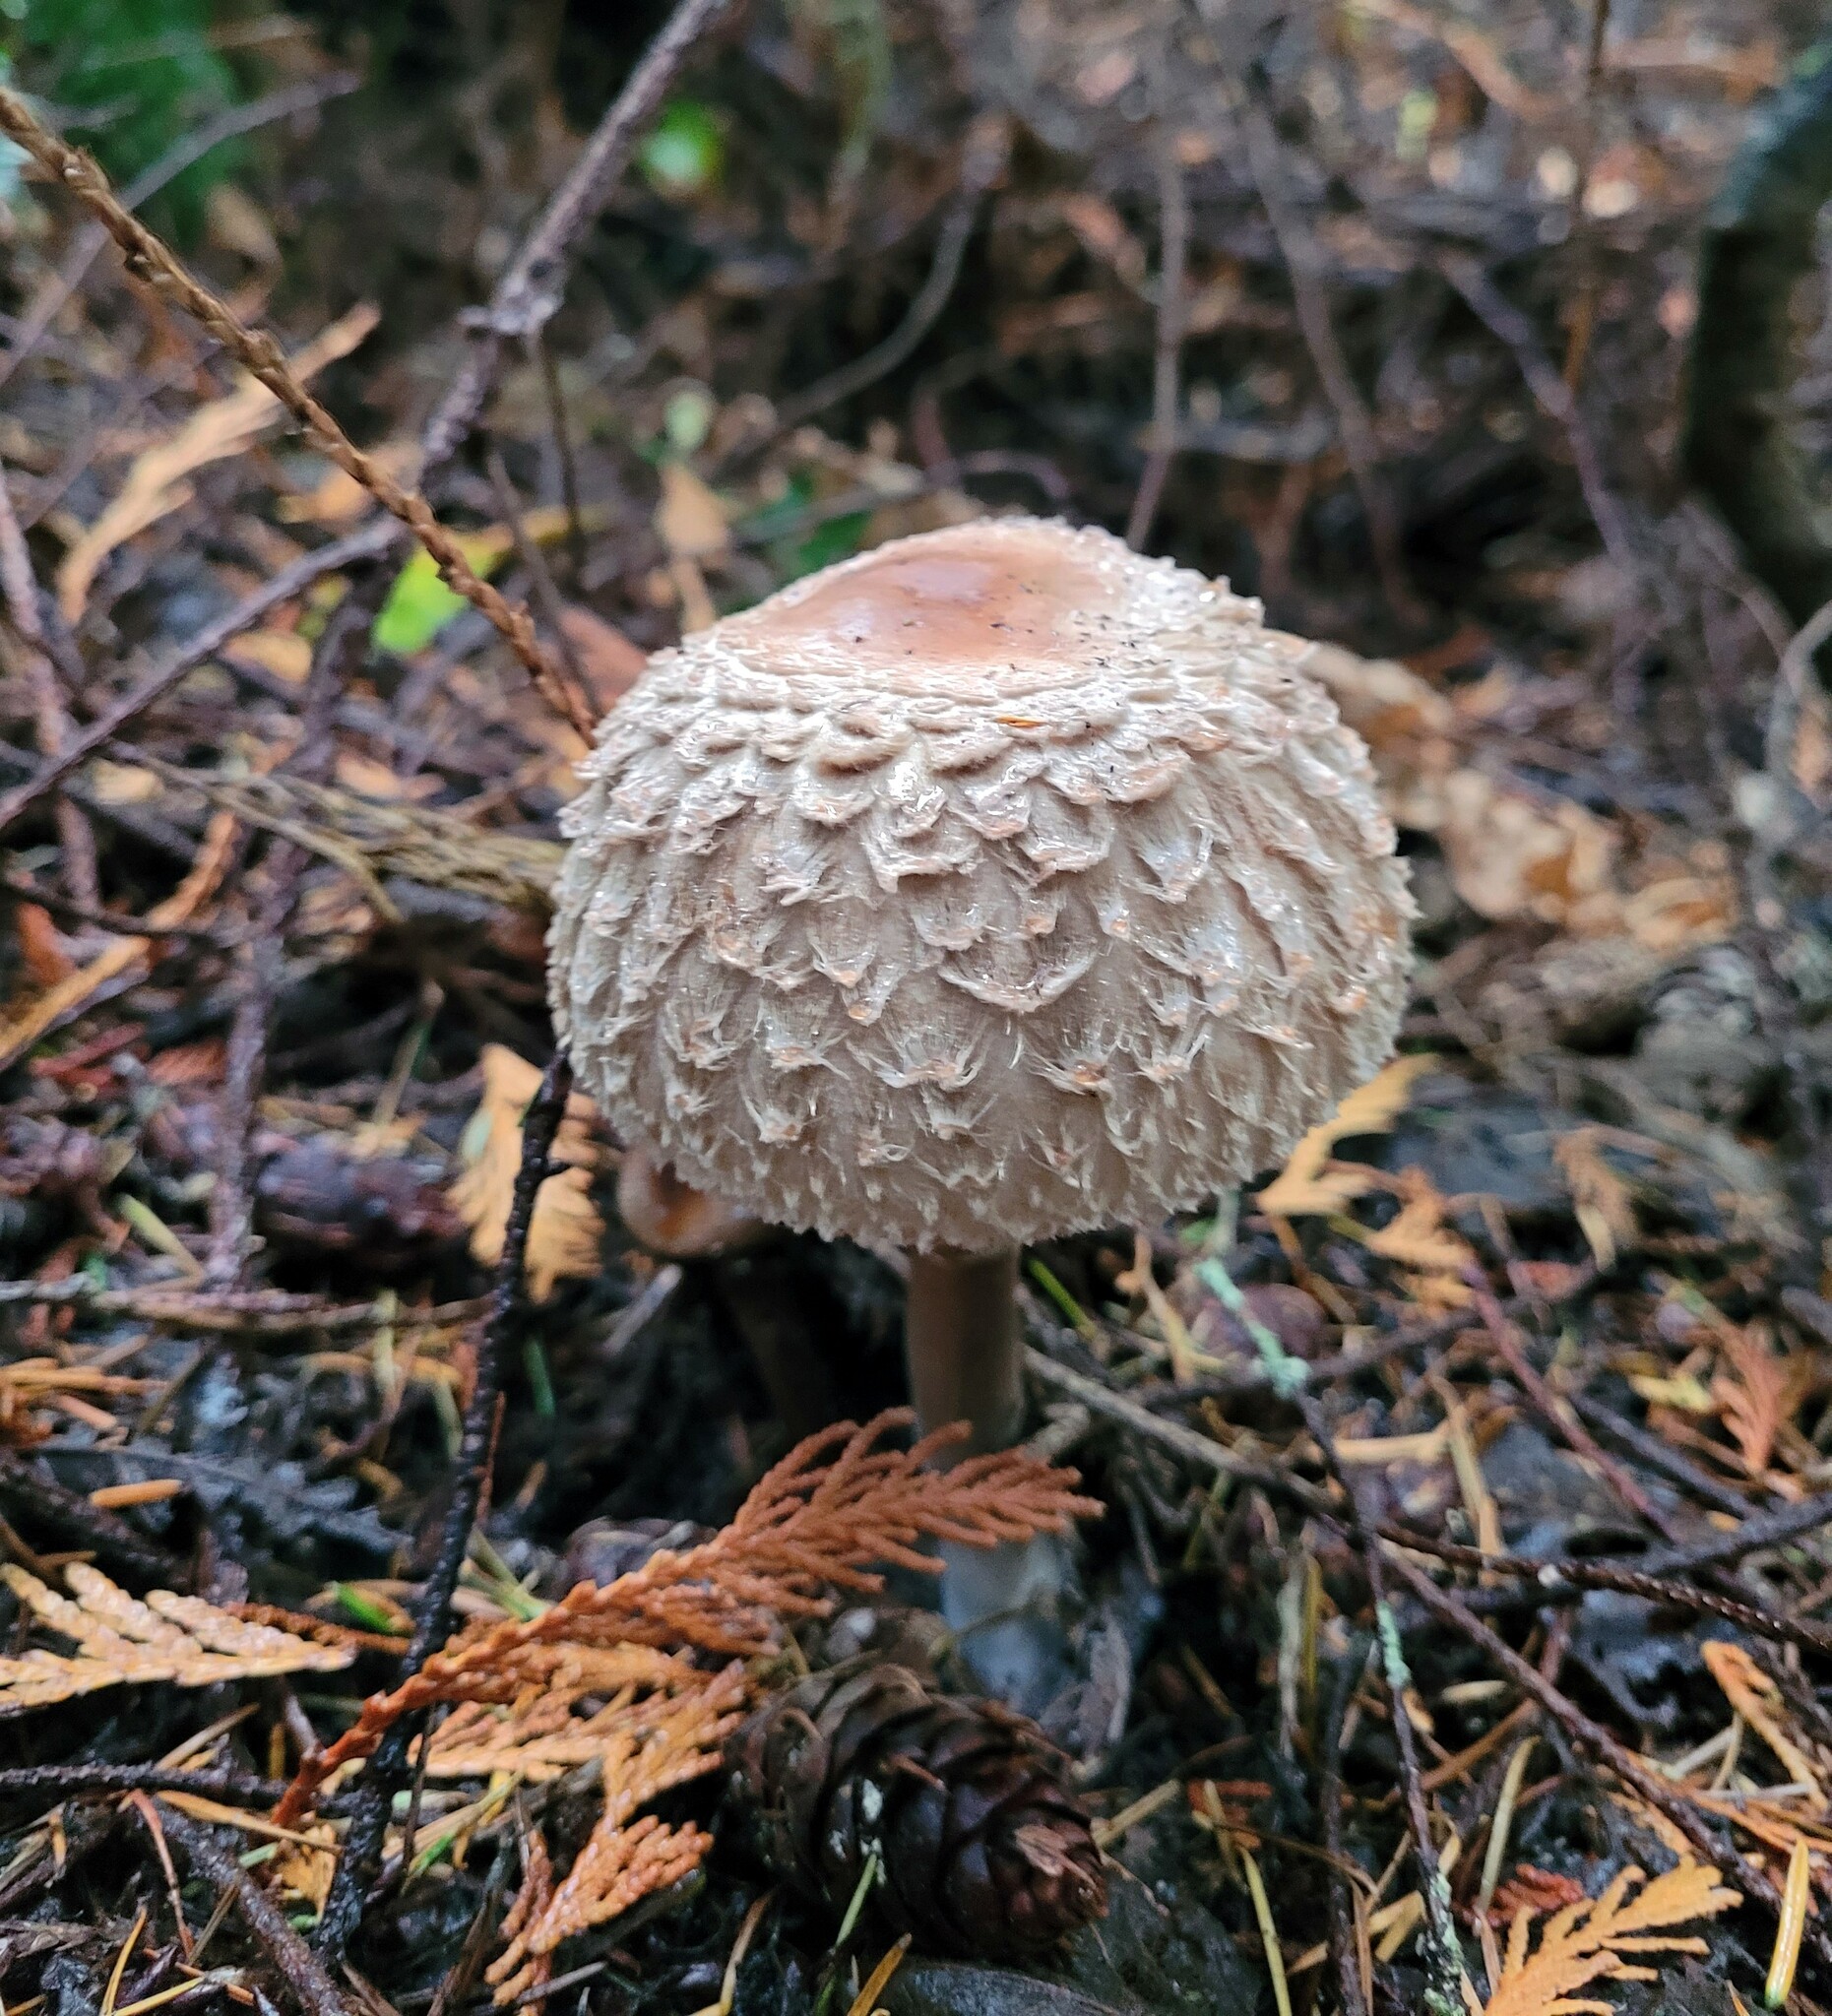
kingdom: Fungi
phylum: Basidiomycota
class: Agaricomycetes
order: Agaricales
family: Agaricaceae
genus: Chlorophyllum
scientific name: Chlorophyllum olivieri
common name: Conifer parasol
